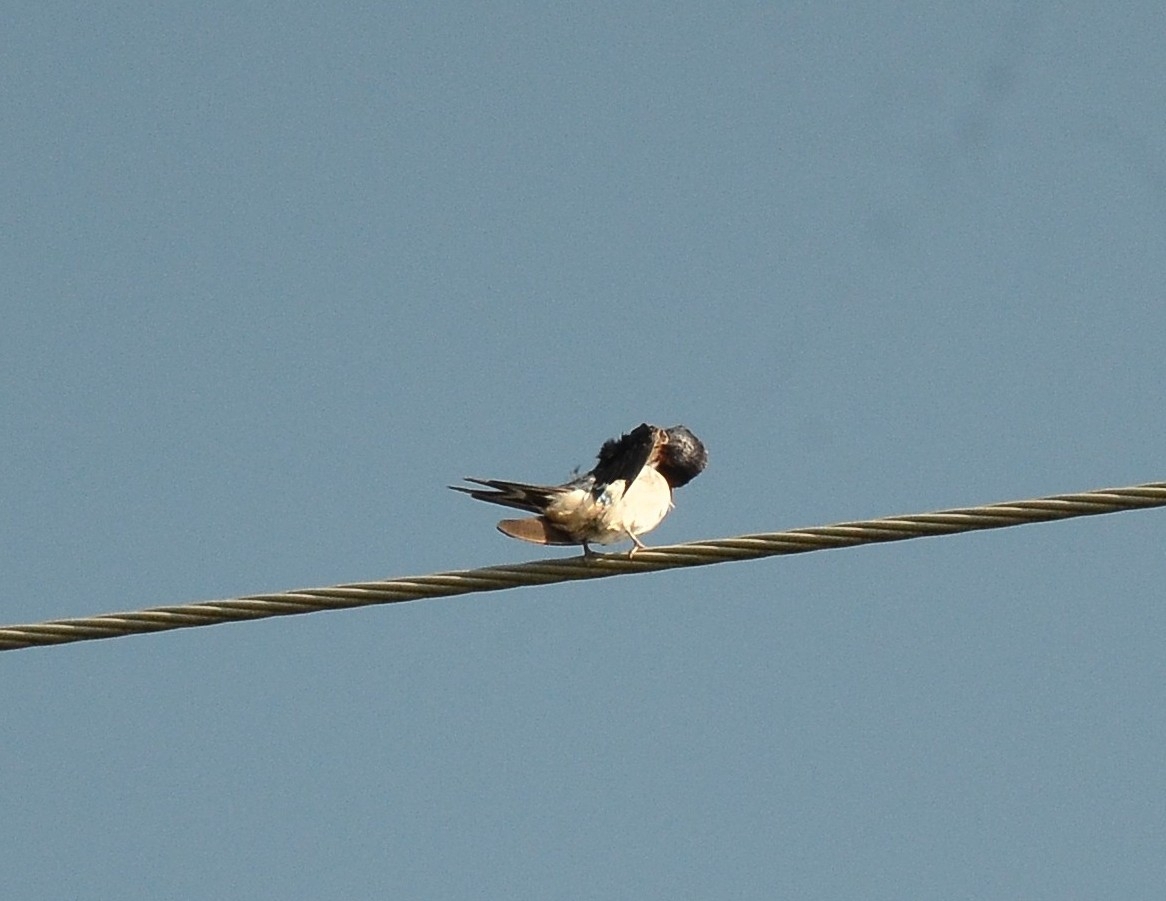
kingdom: Animalia
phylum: Chordata
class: Aves
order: Passeriformes
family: Hirundinidae
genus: Hirundo
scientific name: Hirundo rustica
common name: Barn swallow
